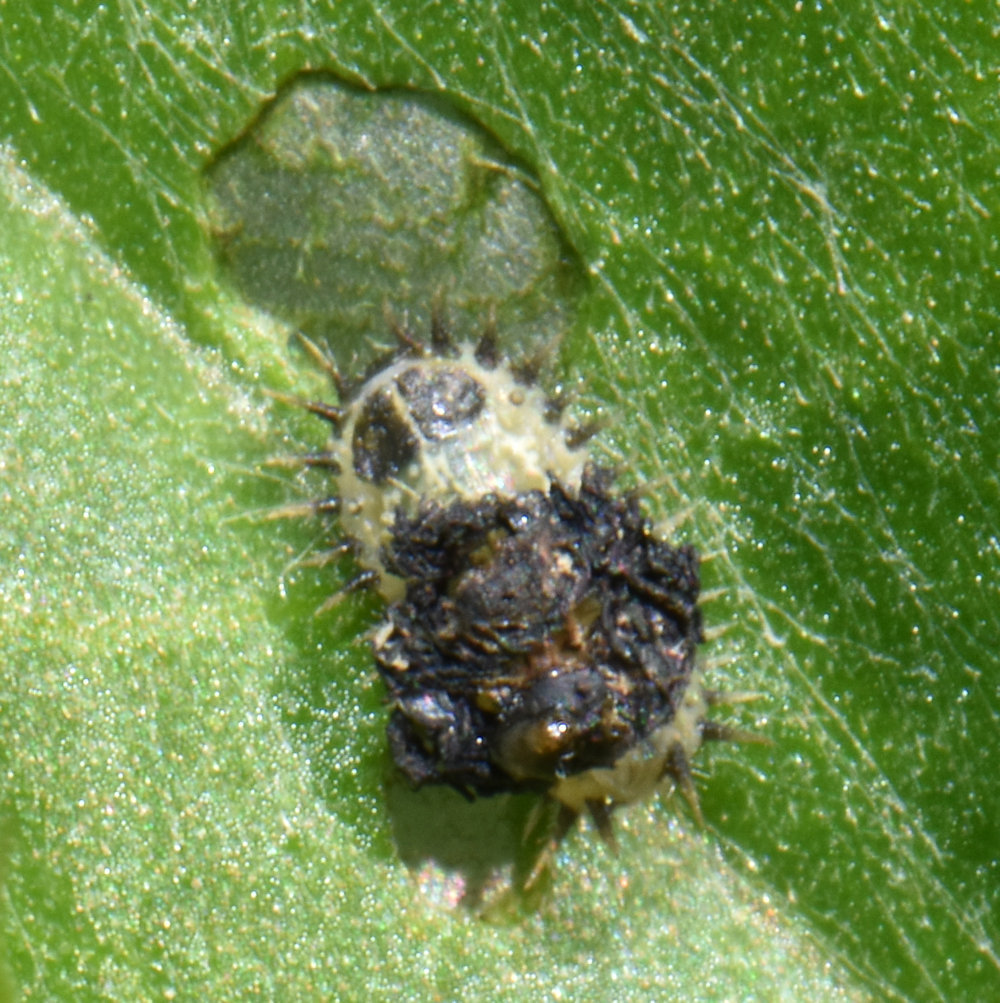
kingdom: Animalia
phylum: Arthropoda
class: Insecta
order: Coleoptera
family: Chrysomelidae
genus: Cassida
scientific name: Cassida rubiginosa
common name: Thistle tortoise beetle
